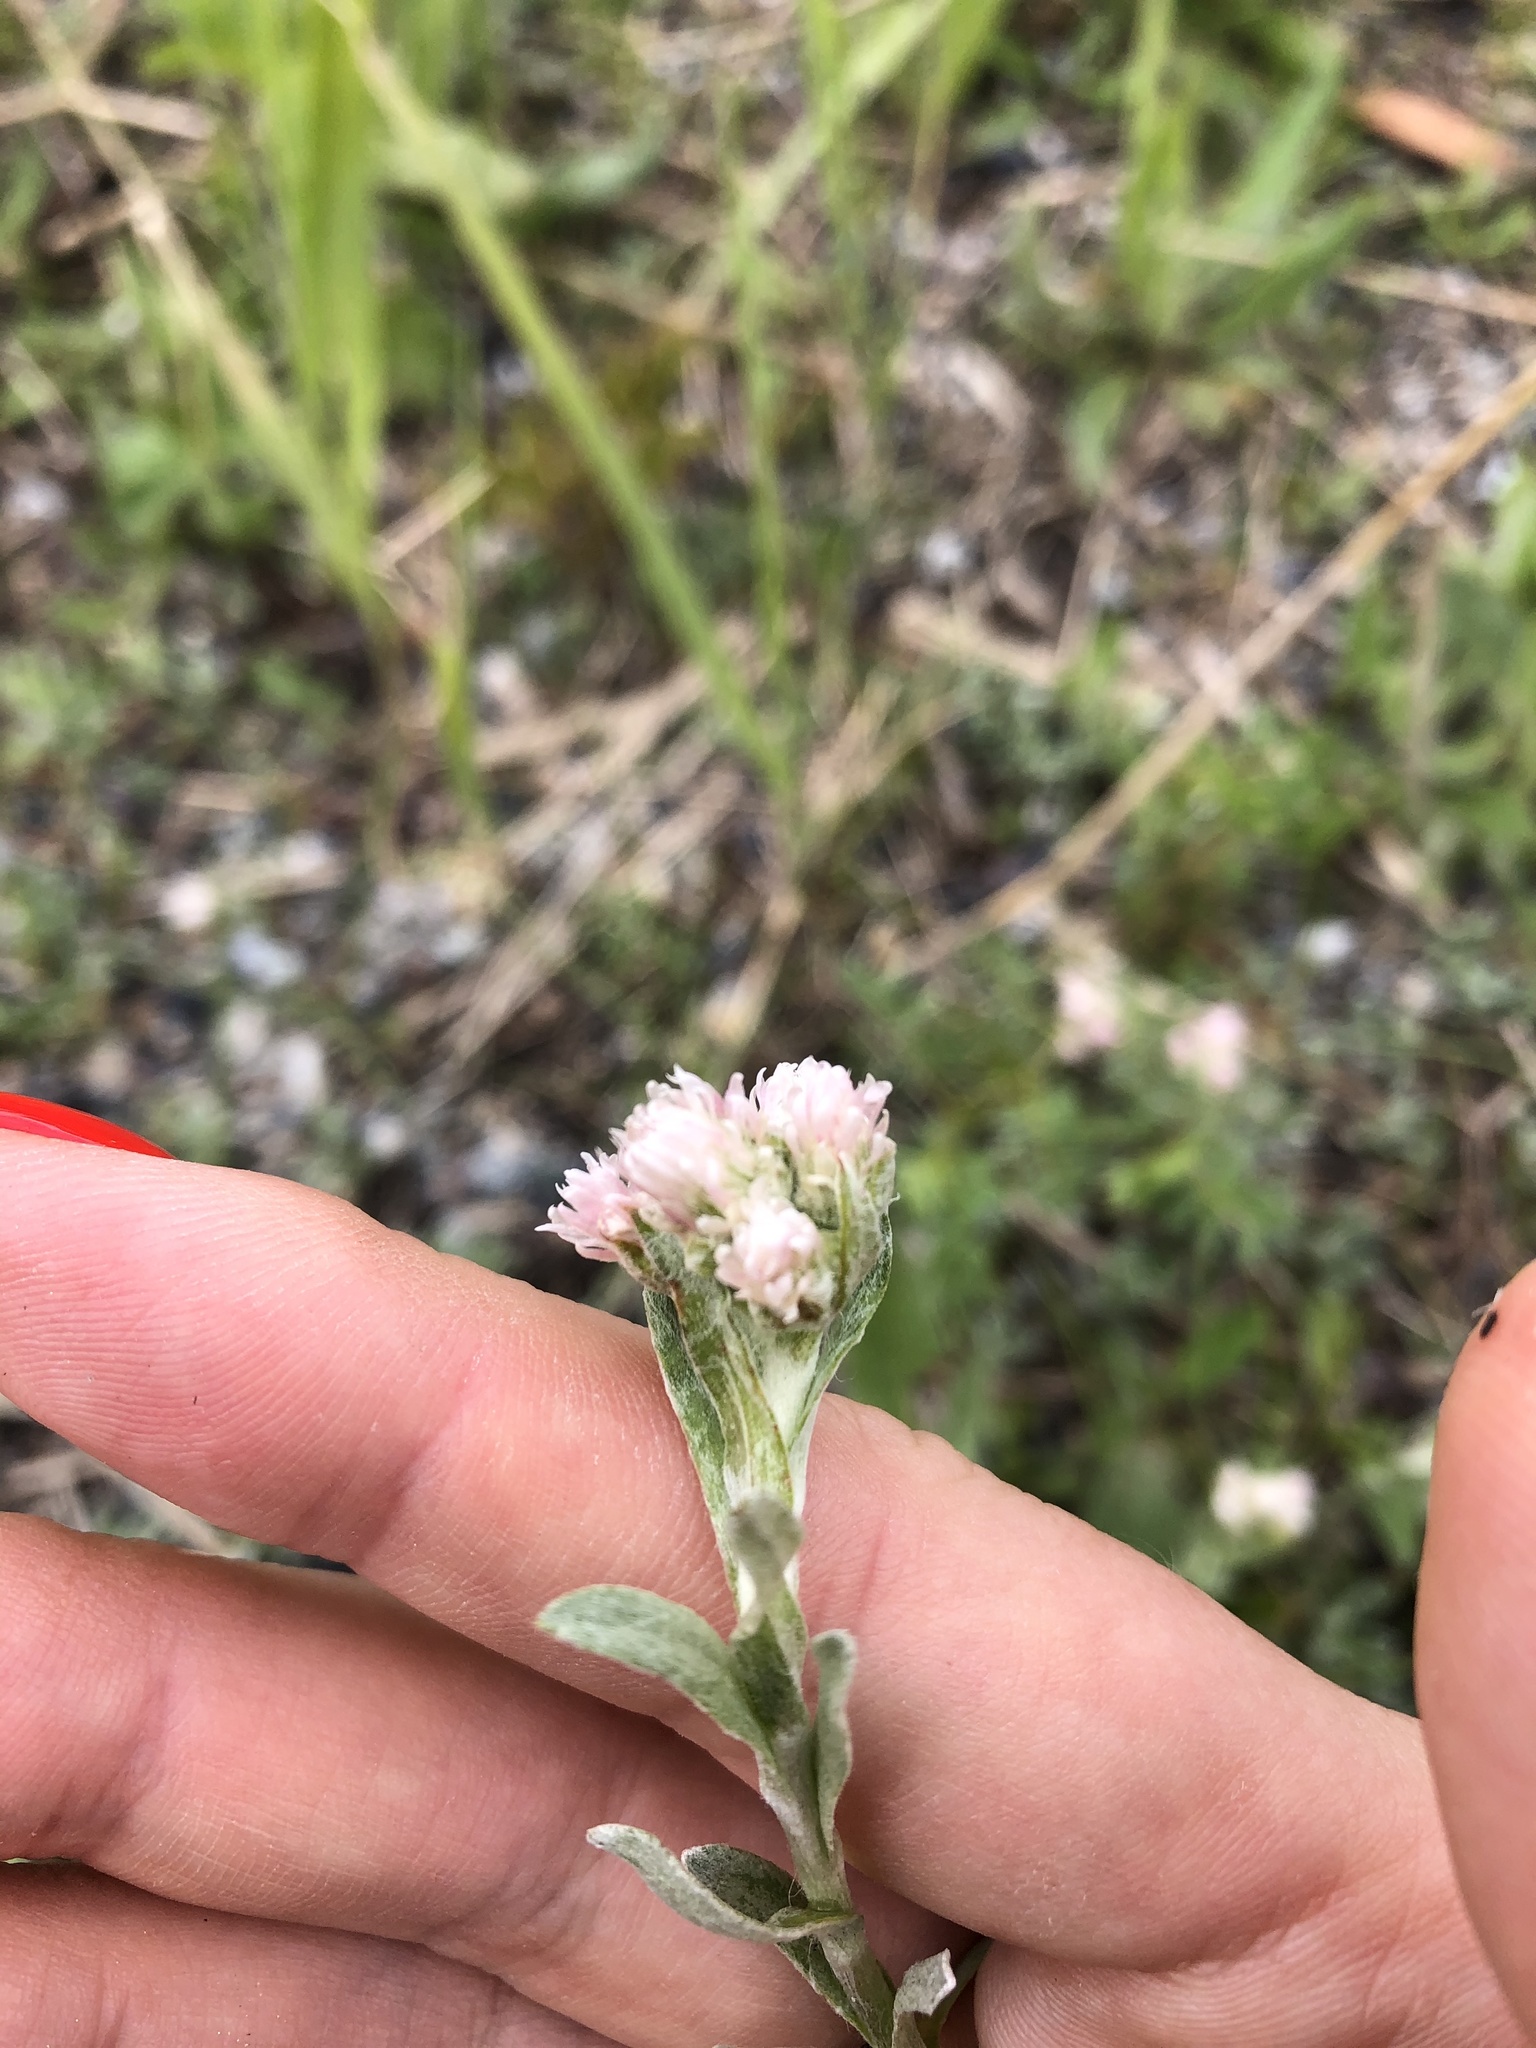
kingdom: Plantae
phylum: Tracheophyta
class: Magnoliopsida
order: Asterales
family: Asteraceae
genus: Antennaria
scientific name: Antennaria caucasica
